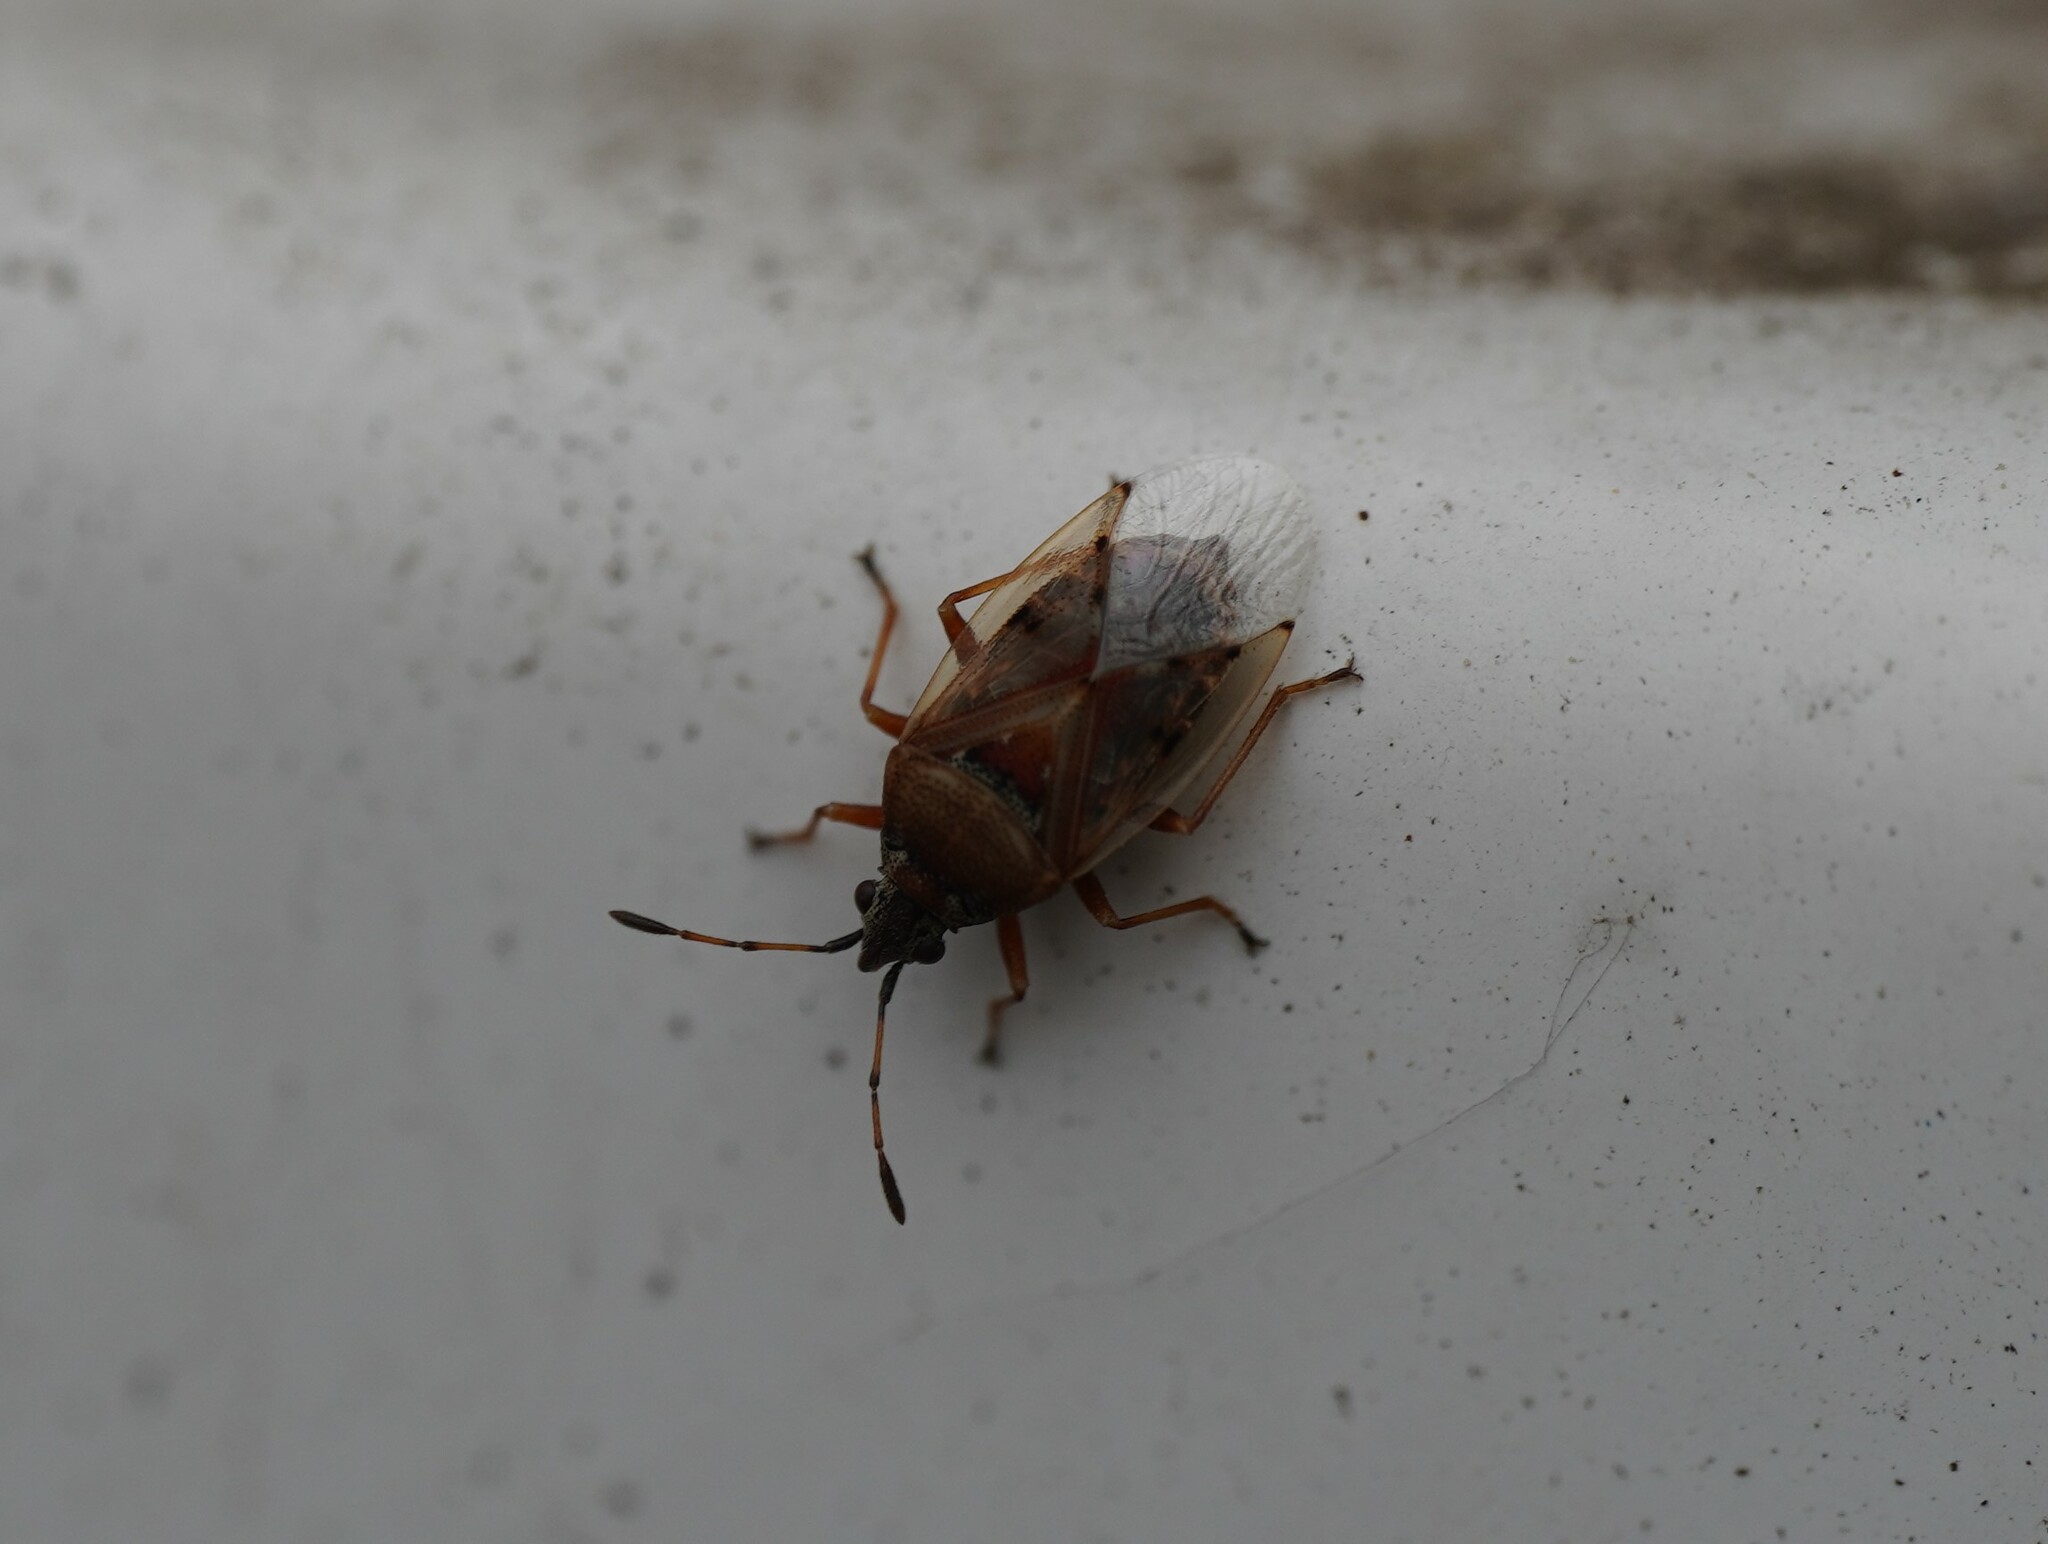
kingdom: Animalia
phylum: Arthropoda
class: Insecta
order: Hemiptera
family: Lygaeidae
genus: Kleidocerys
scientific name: Kleidocerys resedae
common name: Birch catkin bug
